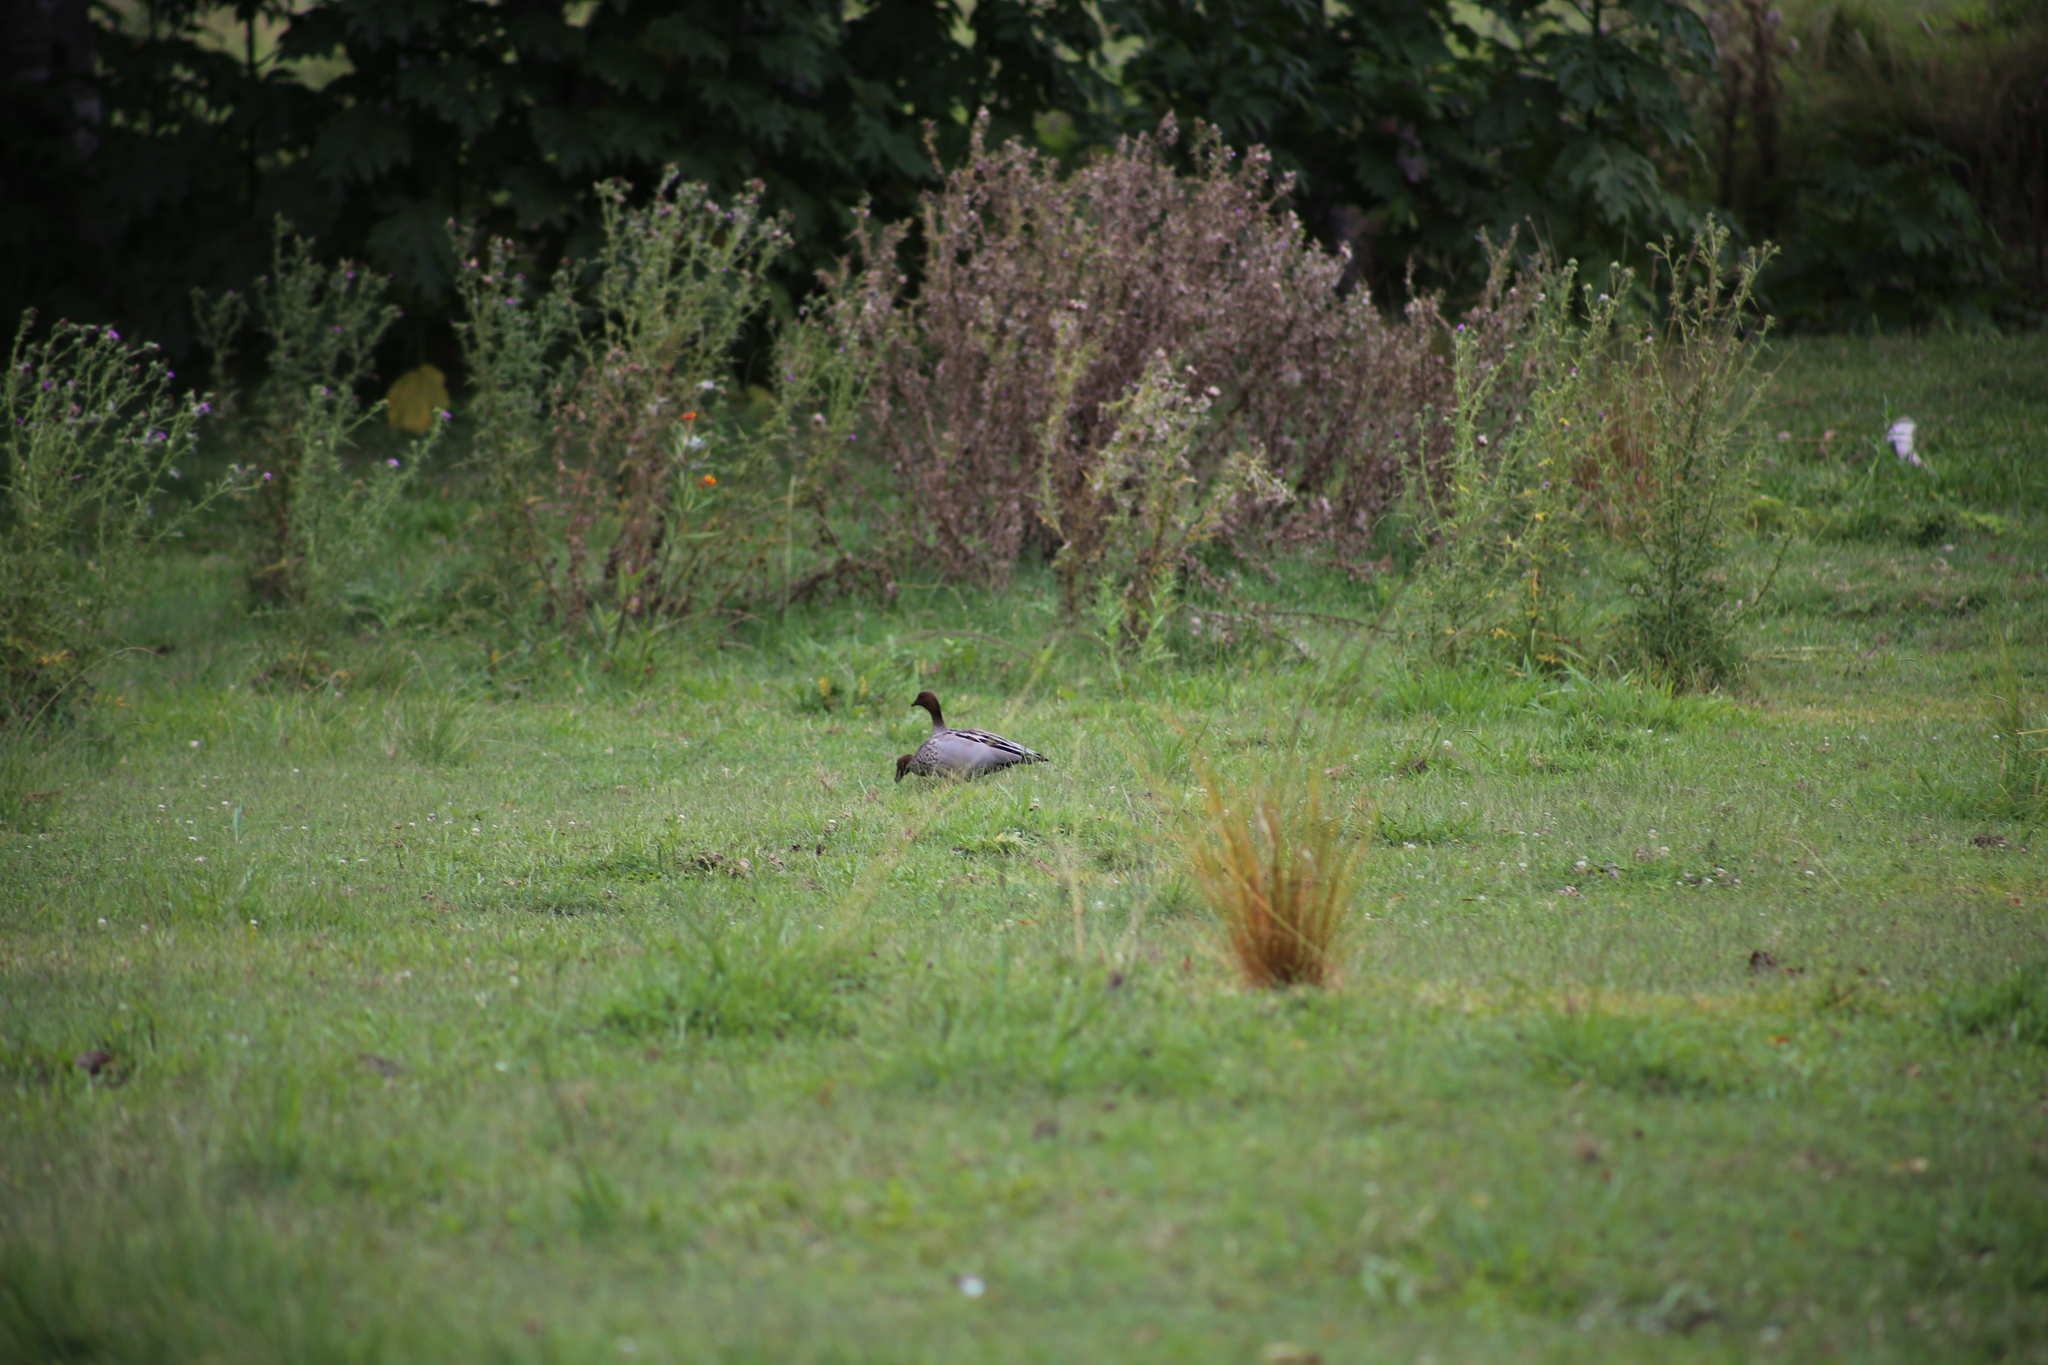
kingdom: Animalia
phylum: Chordata
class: Aves
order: Anseriformes
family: Anatidae
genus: Chenonetta
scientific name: Chenonetta jubata
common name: Maned duck
